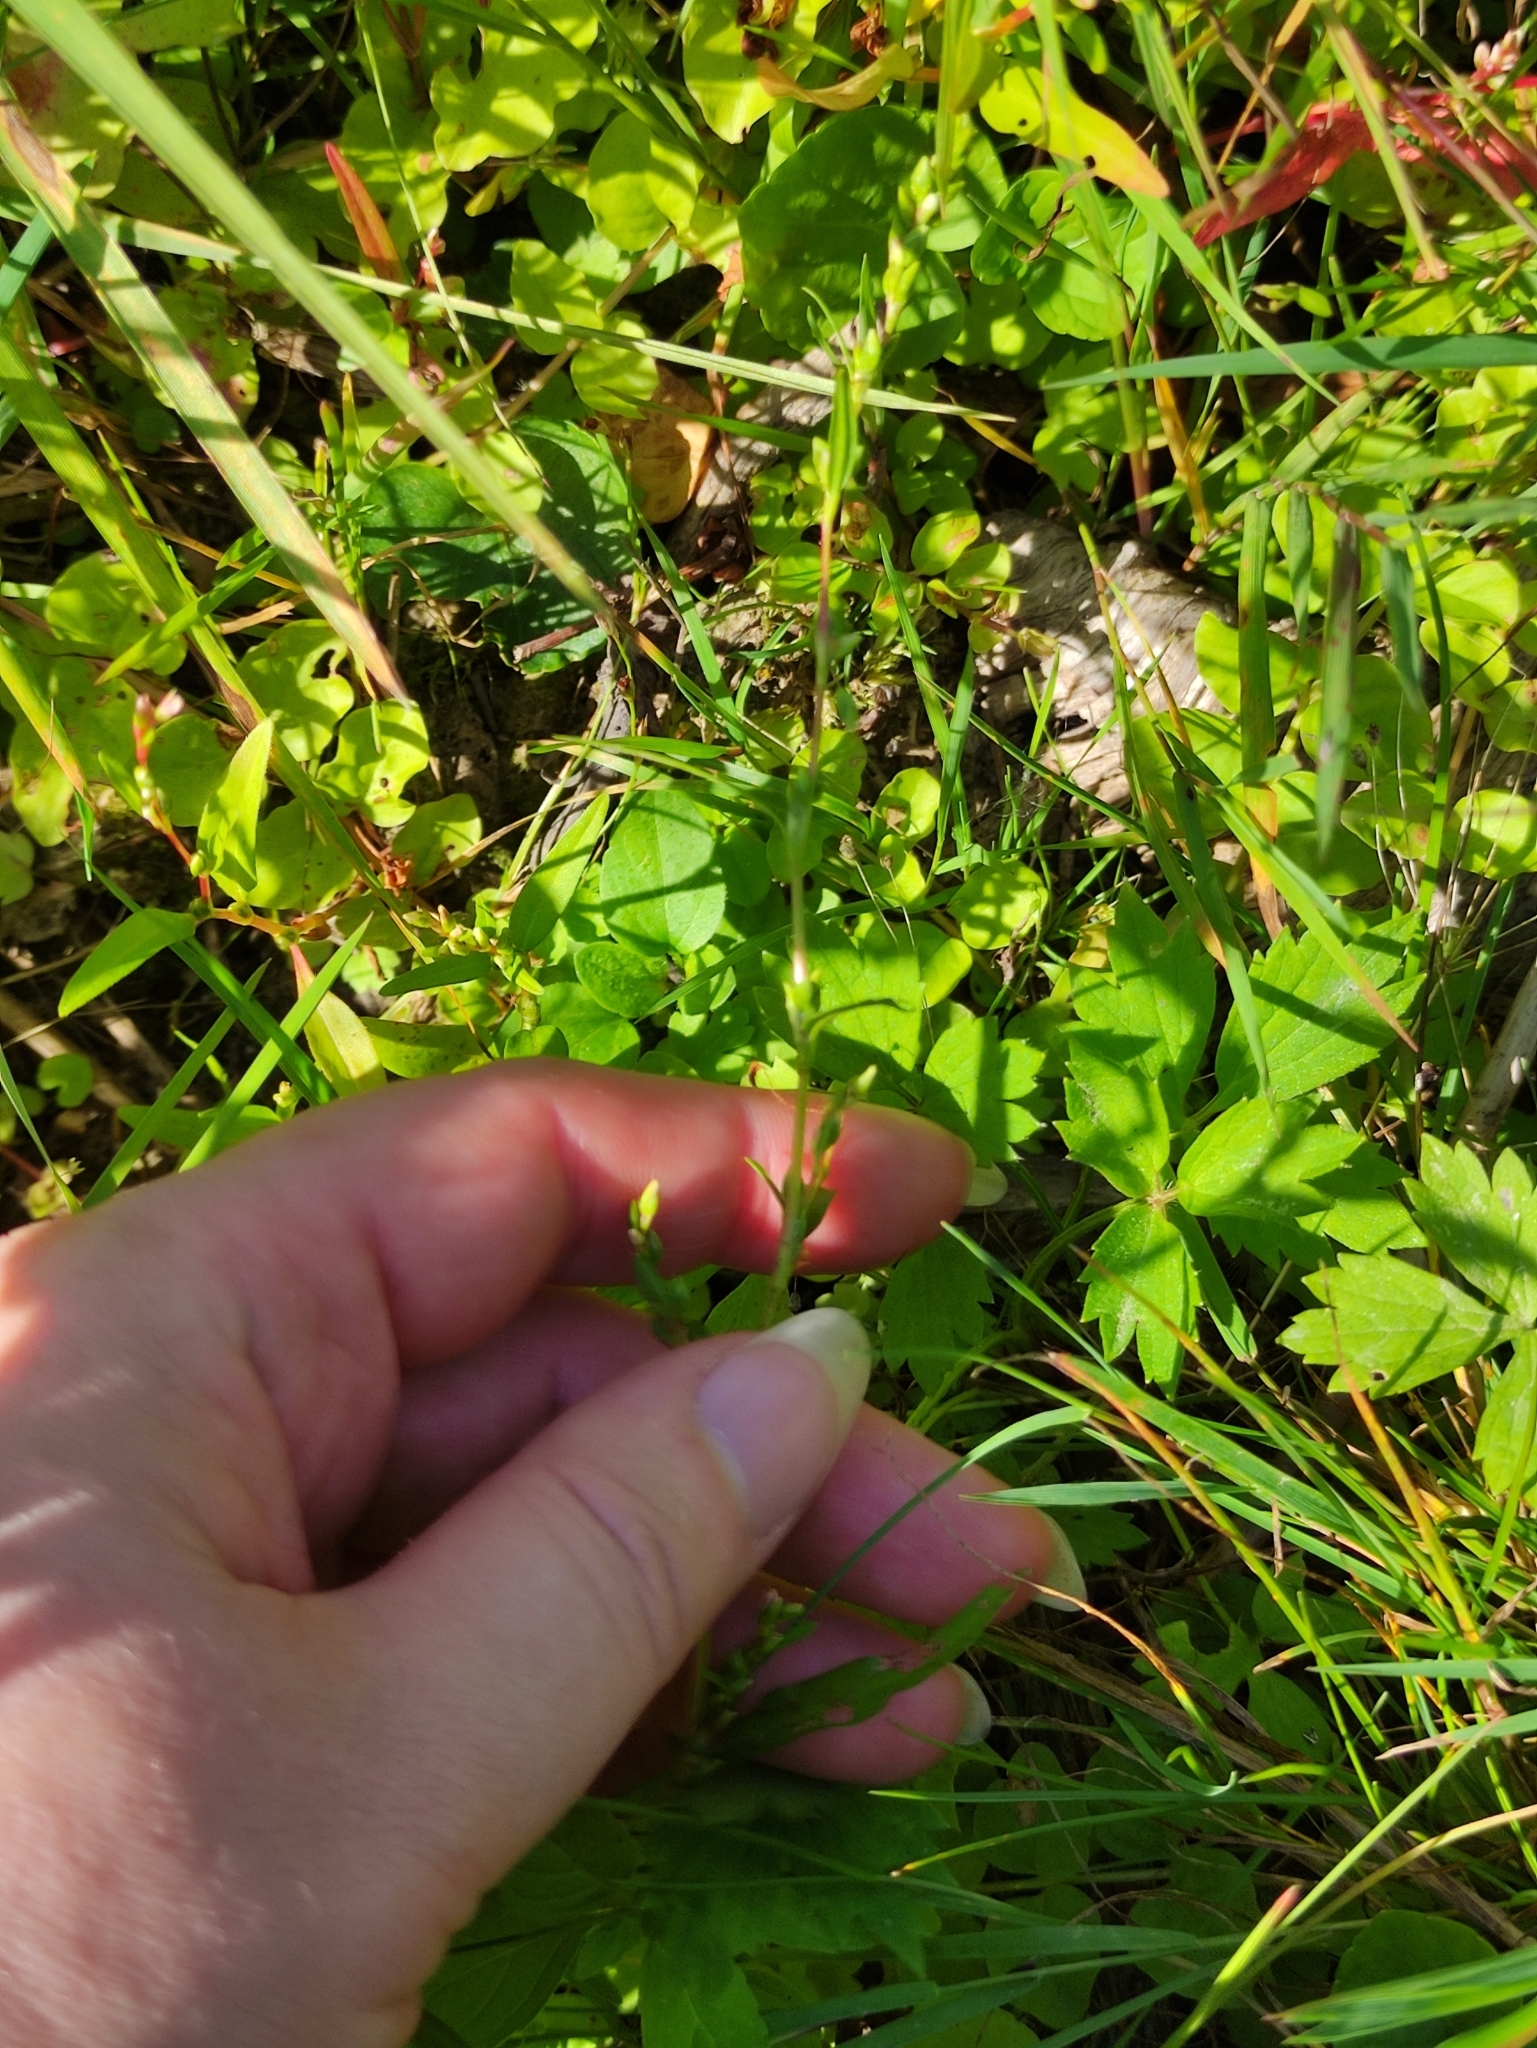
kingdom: Plantae
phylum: Tracheophyta
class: Magnoliopsida
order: Caryophyllales
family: Polygonaceae
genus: Persicaria
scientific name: Persicaria hydropiper
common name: Water-pepper
